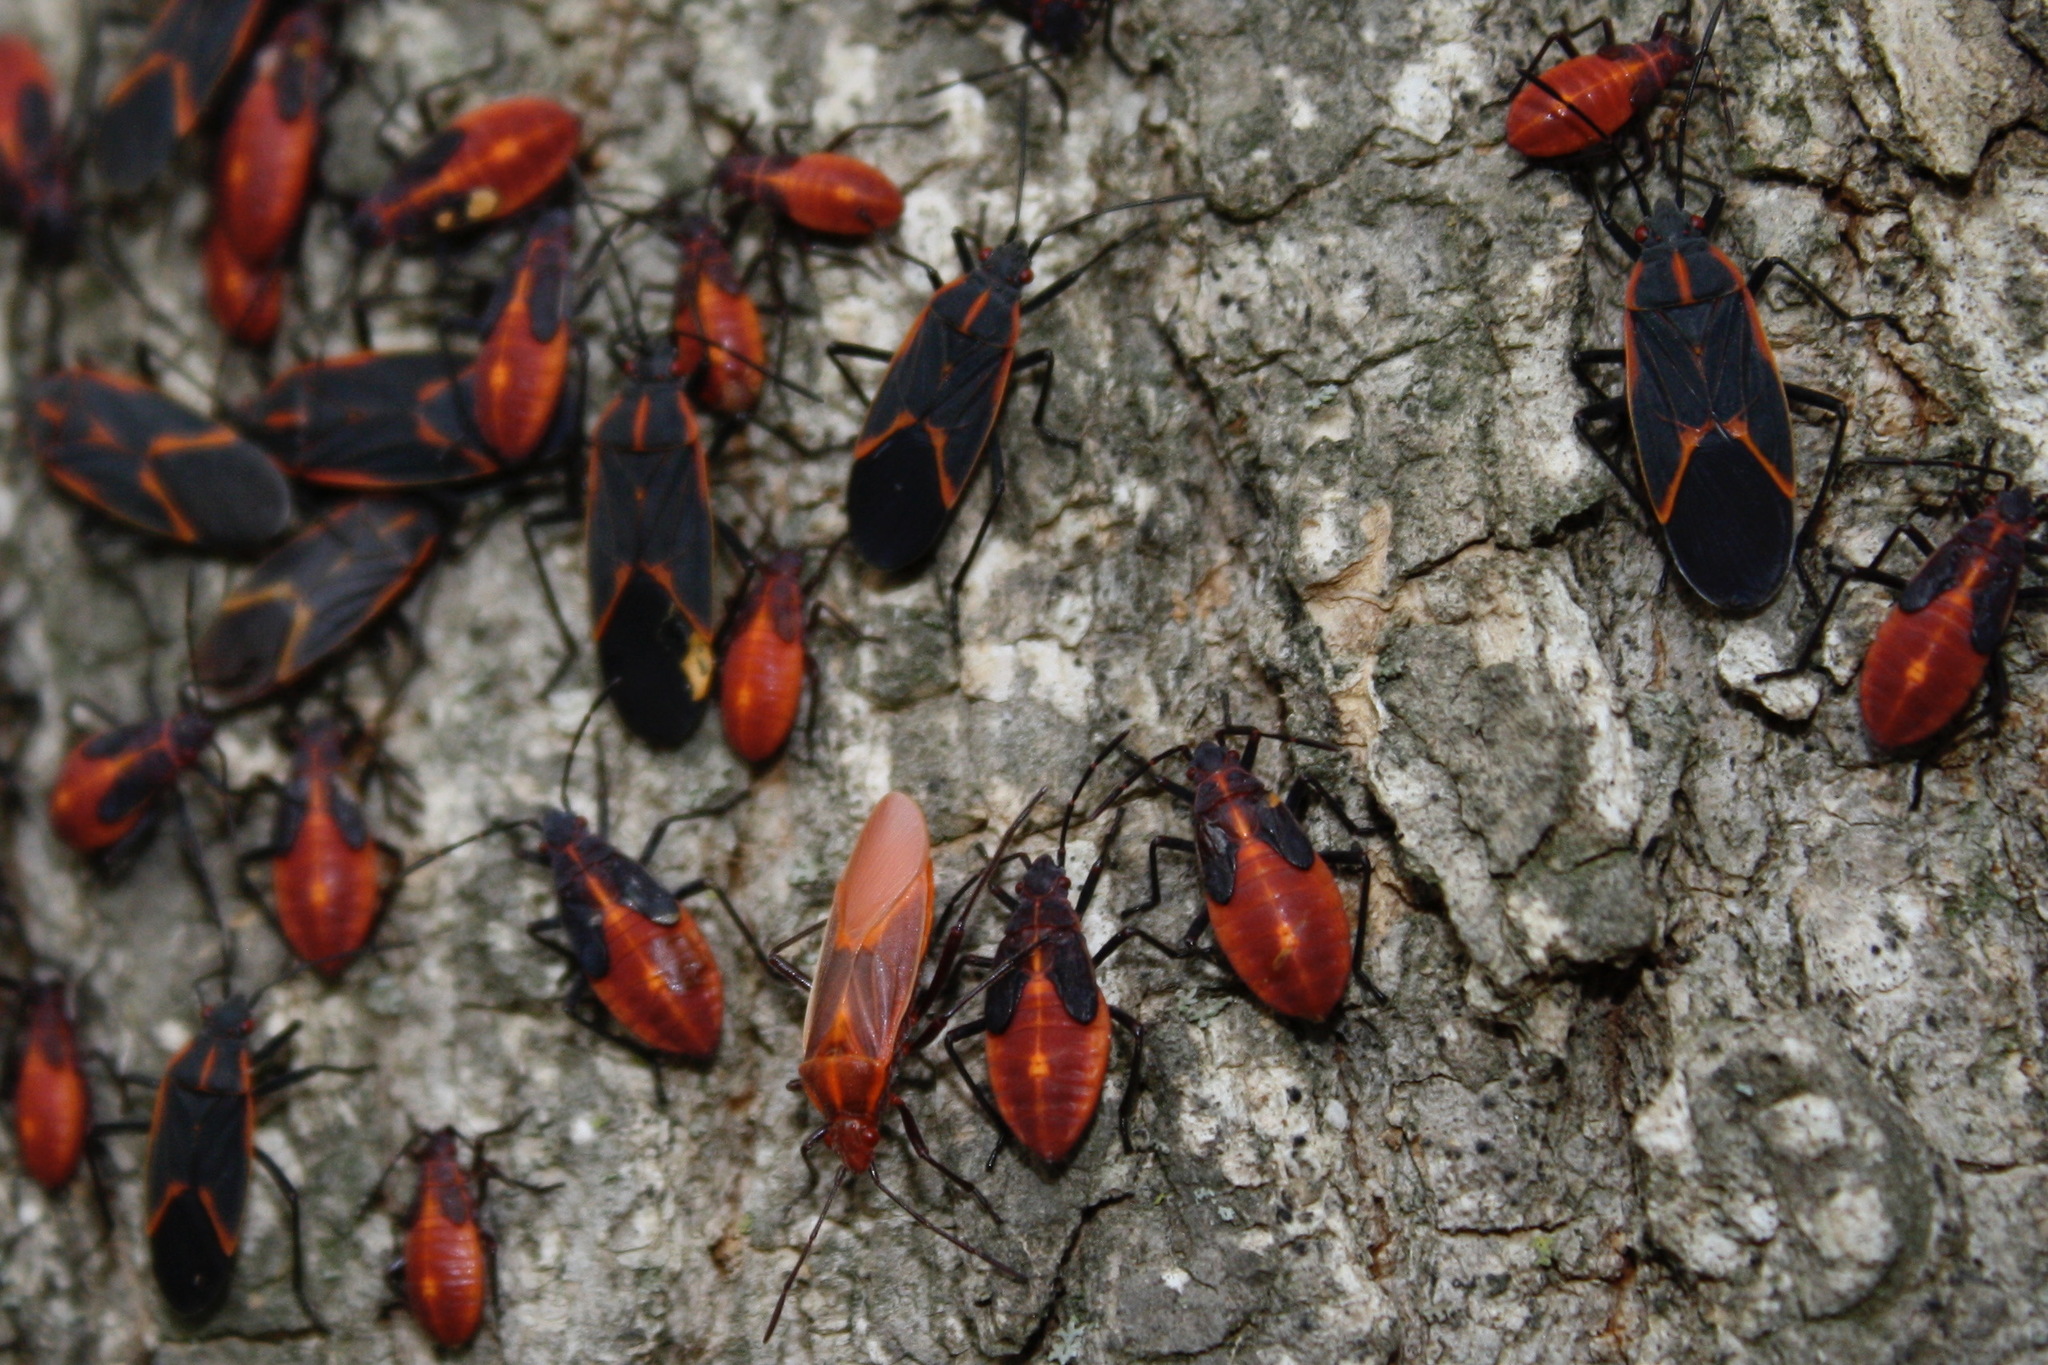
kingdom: Animalia
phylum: Arthropoda
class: Insecta
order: Hemiptera
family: Rhopalidae
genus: Boisea
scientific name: Boisea trivittata
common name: Boxelder bug
